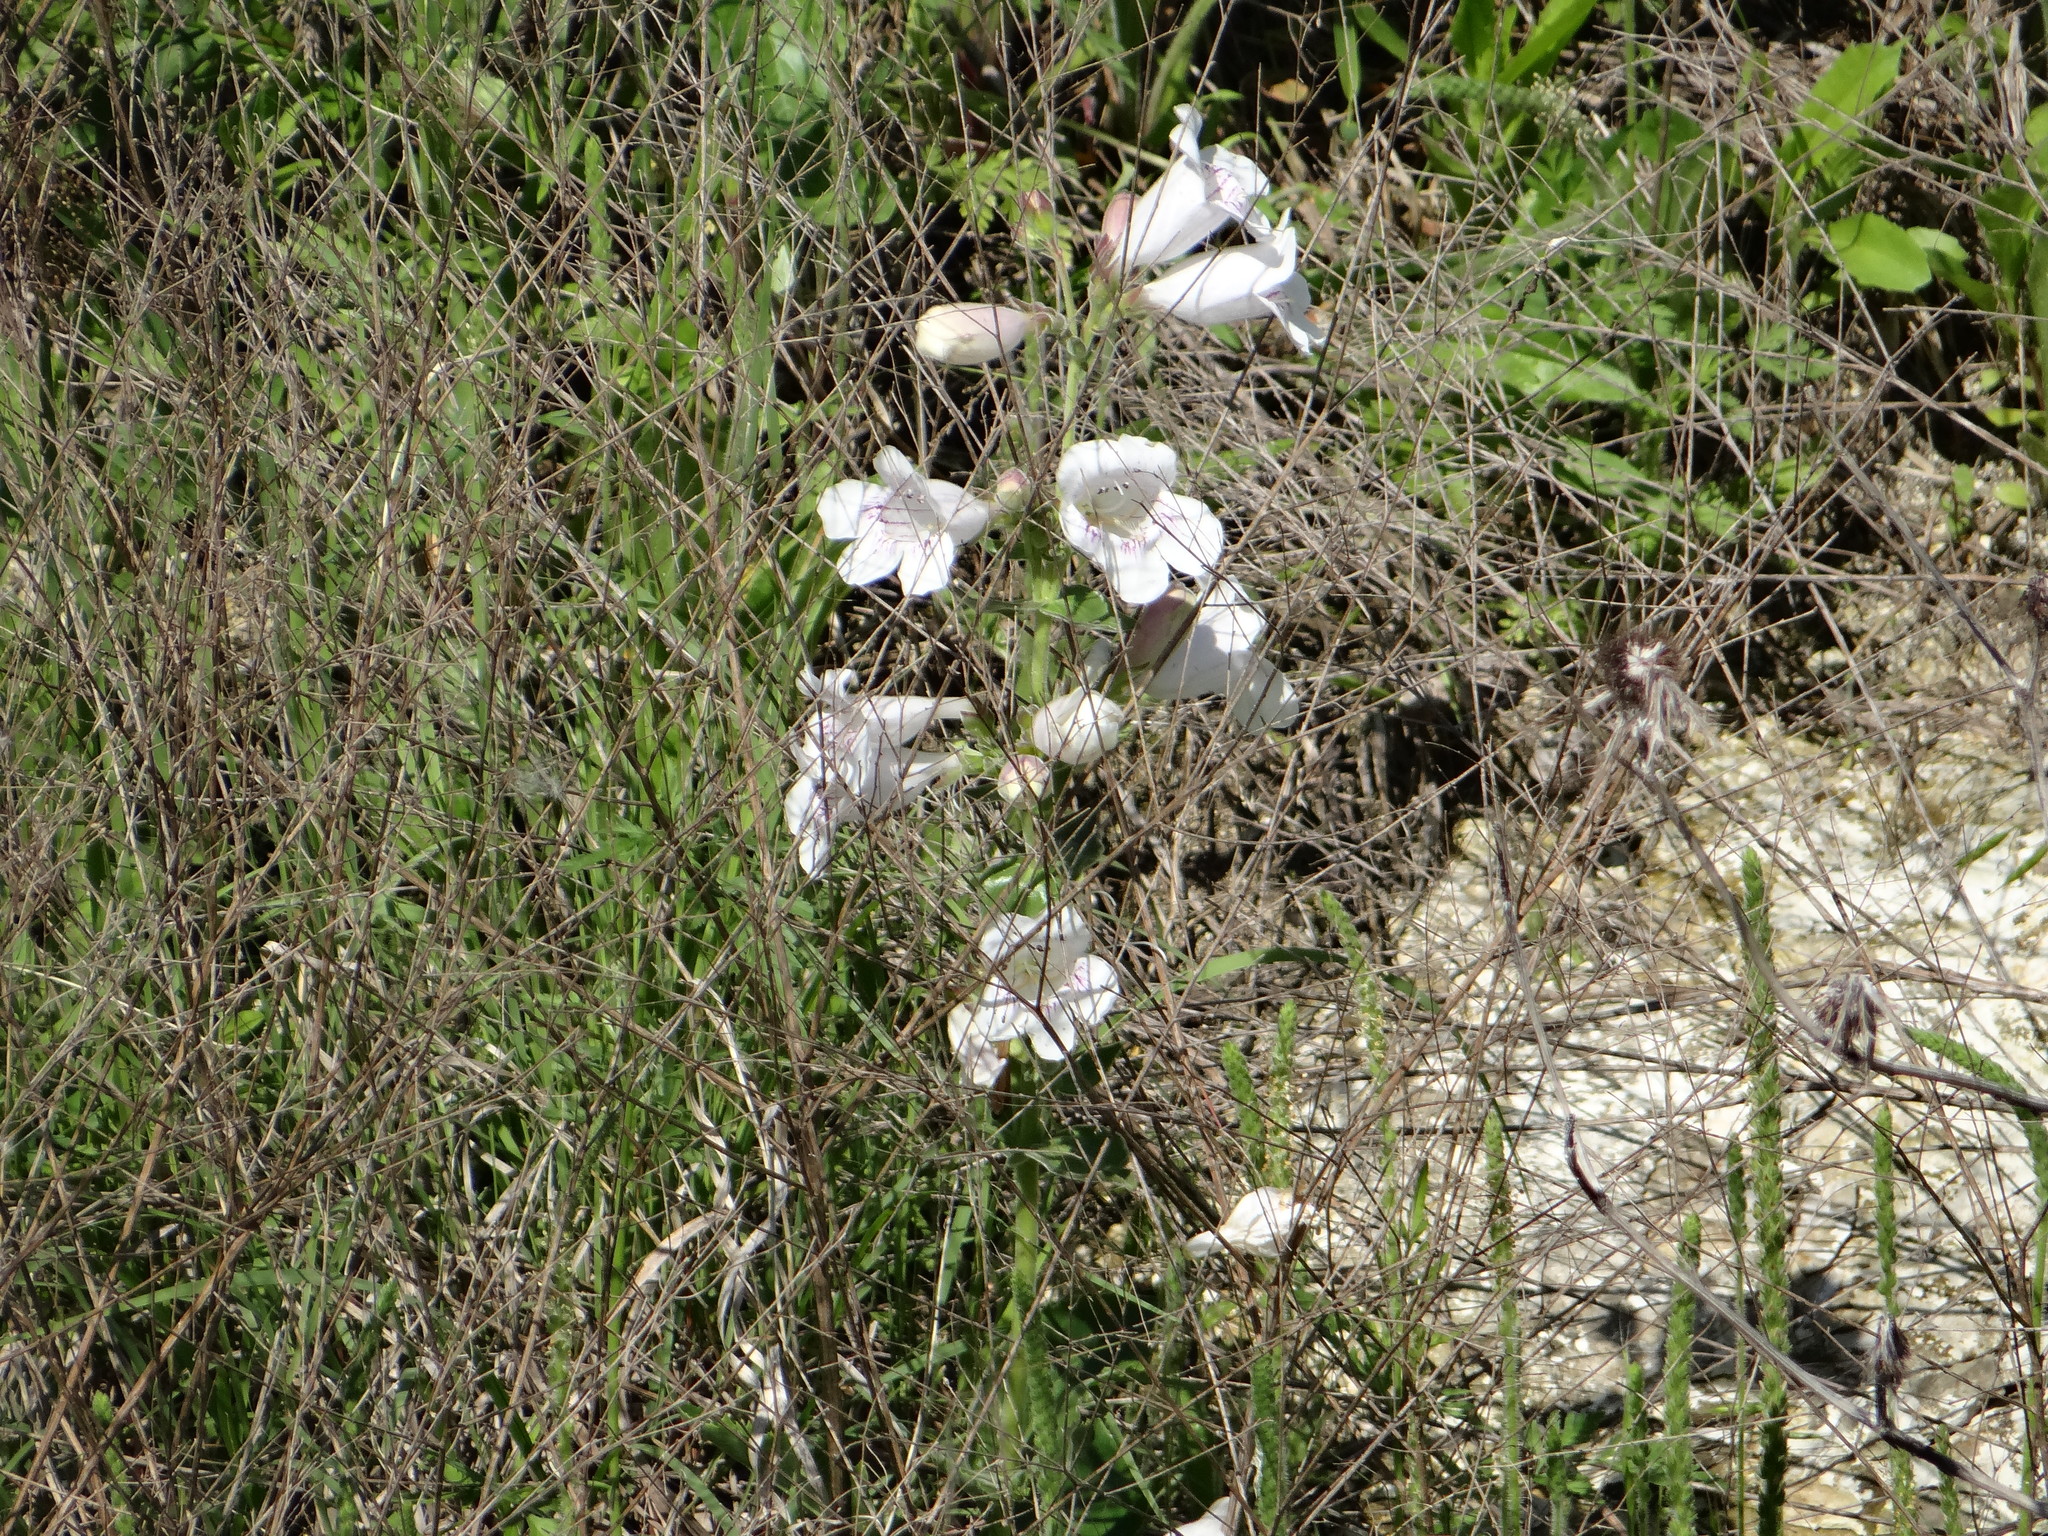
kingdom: Plantae
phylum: Tracheophyta
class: Magnoliopsida
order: Lamiales
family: Plantaginaceae
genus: Penstemon
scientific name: Penstemon cobaea
